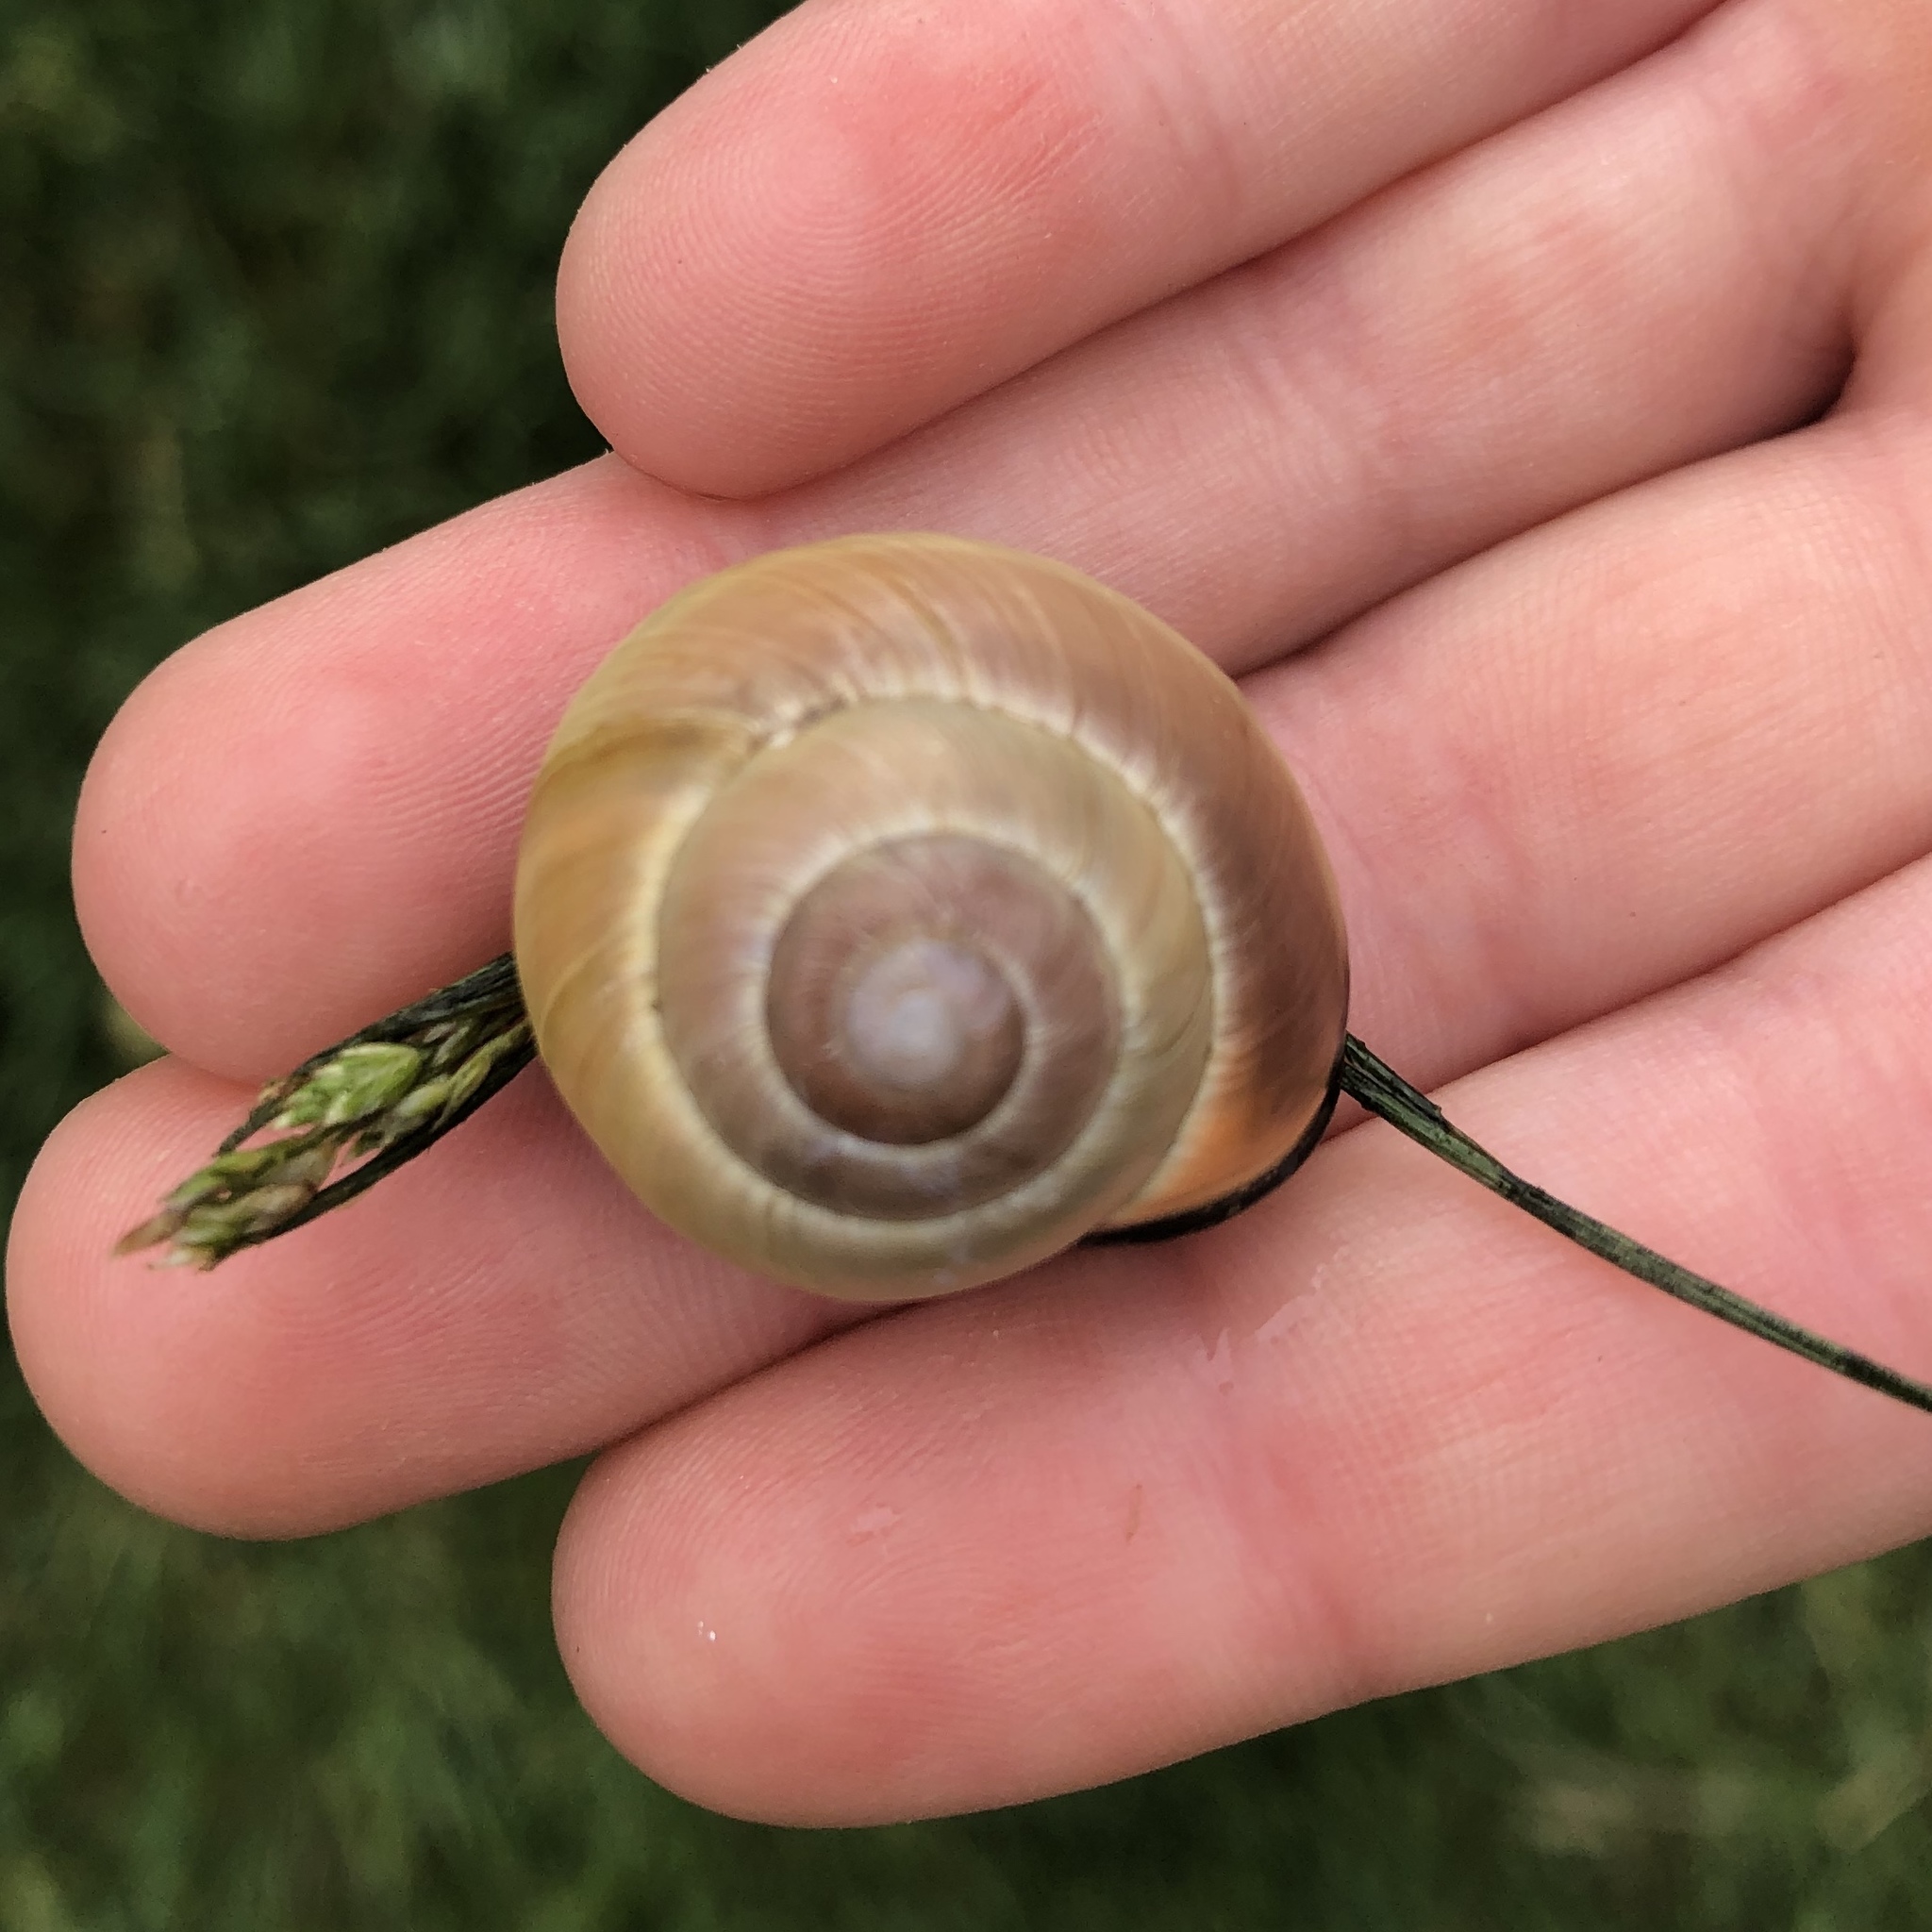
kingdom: Animalia
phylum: Mollusca
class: Gastropoda
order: Stylommatophora
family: Helicidae
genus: Cepaea
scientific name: Cepaea nemoralis
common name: Grovesnail
